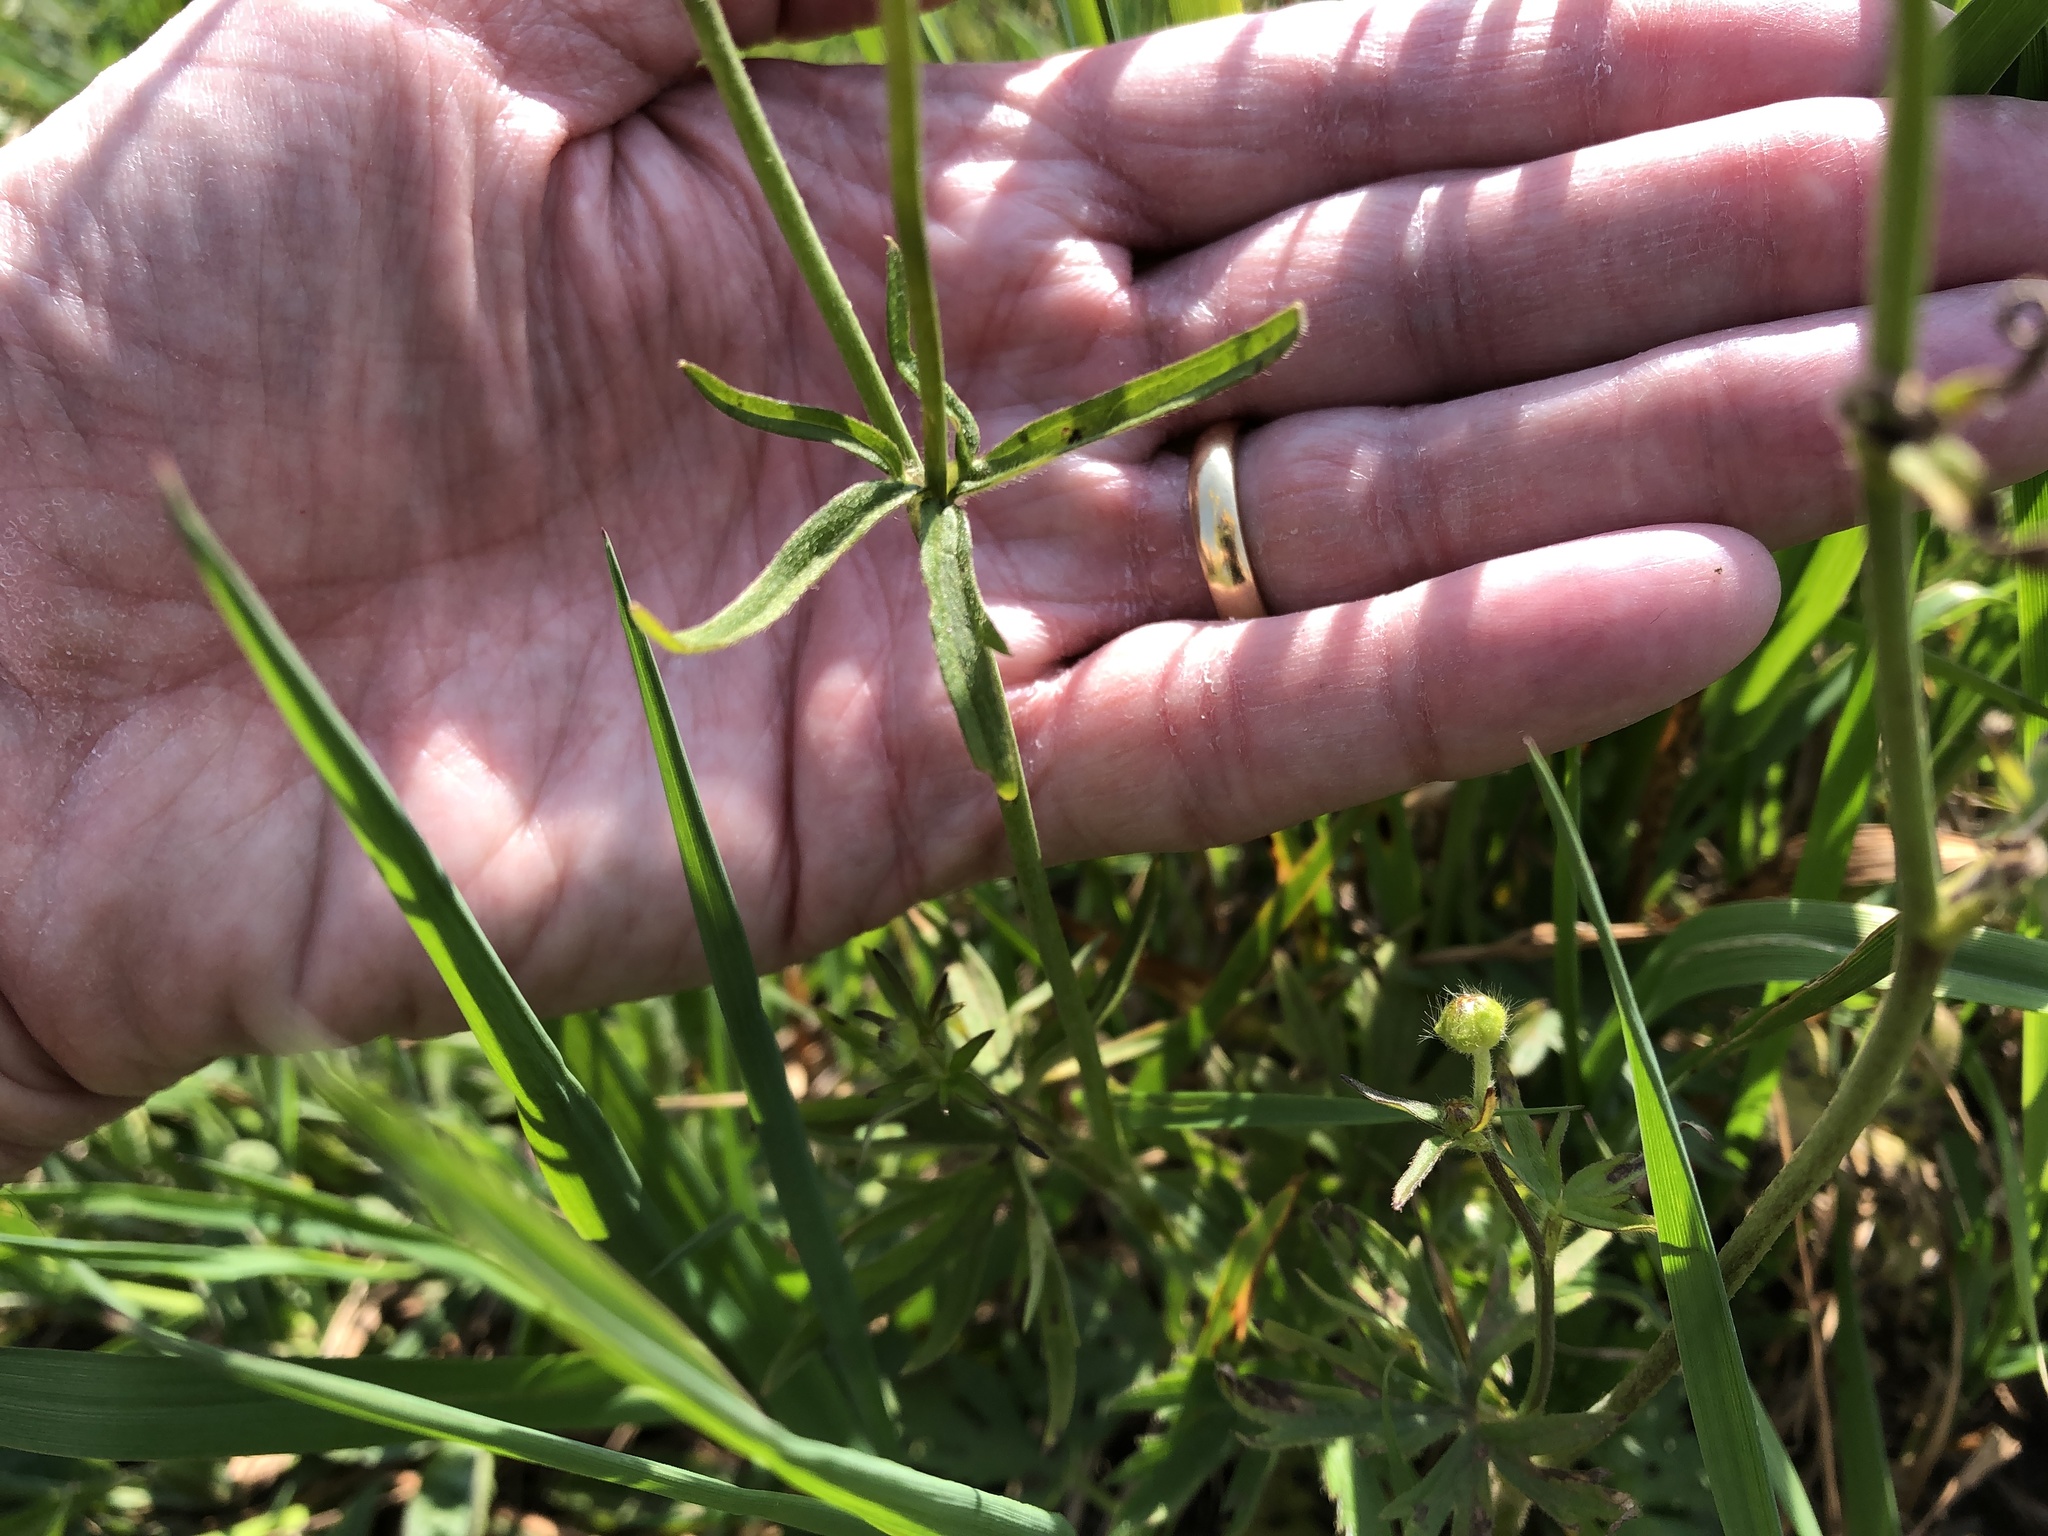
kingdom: Plantae
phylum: Tracheophyta
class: Magnoliopsida
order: Ranunculales
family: Ranunculaceae
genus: Ranunculus
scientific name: Ranunculus acris
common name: Meadow buttercup
